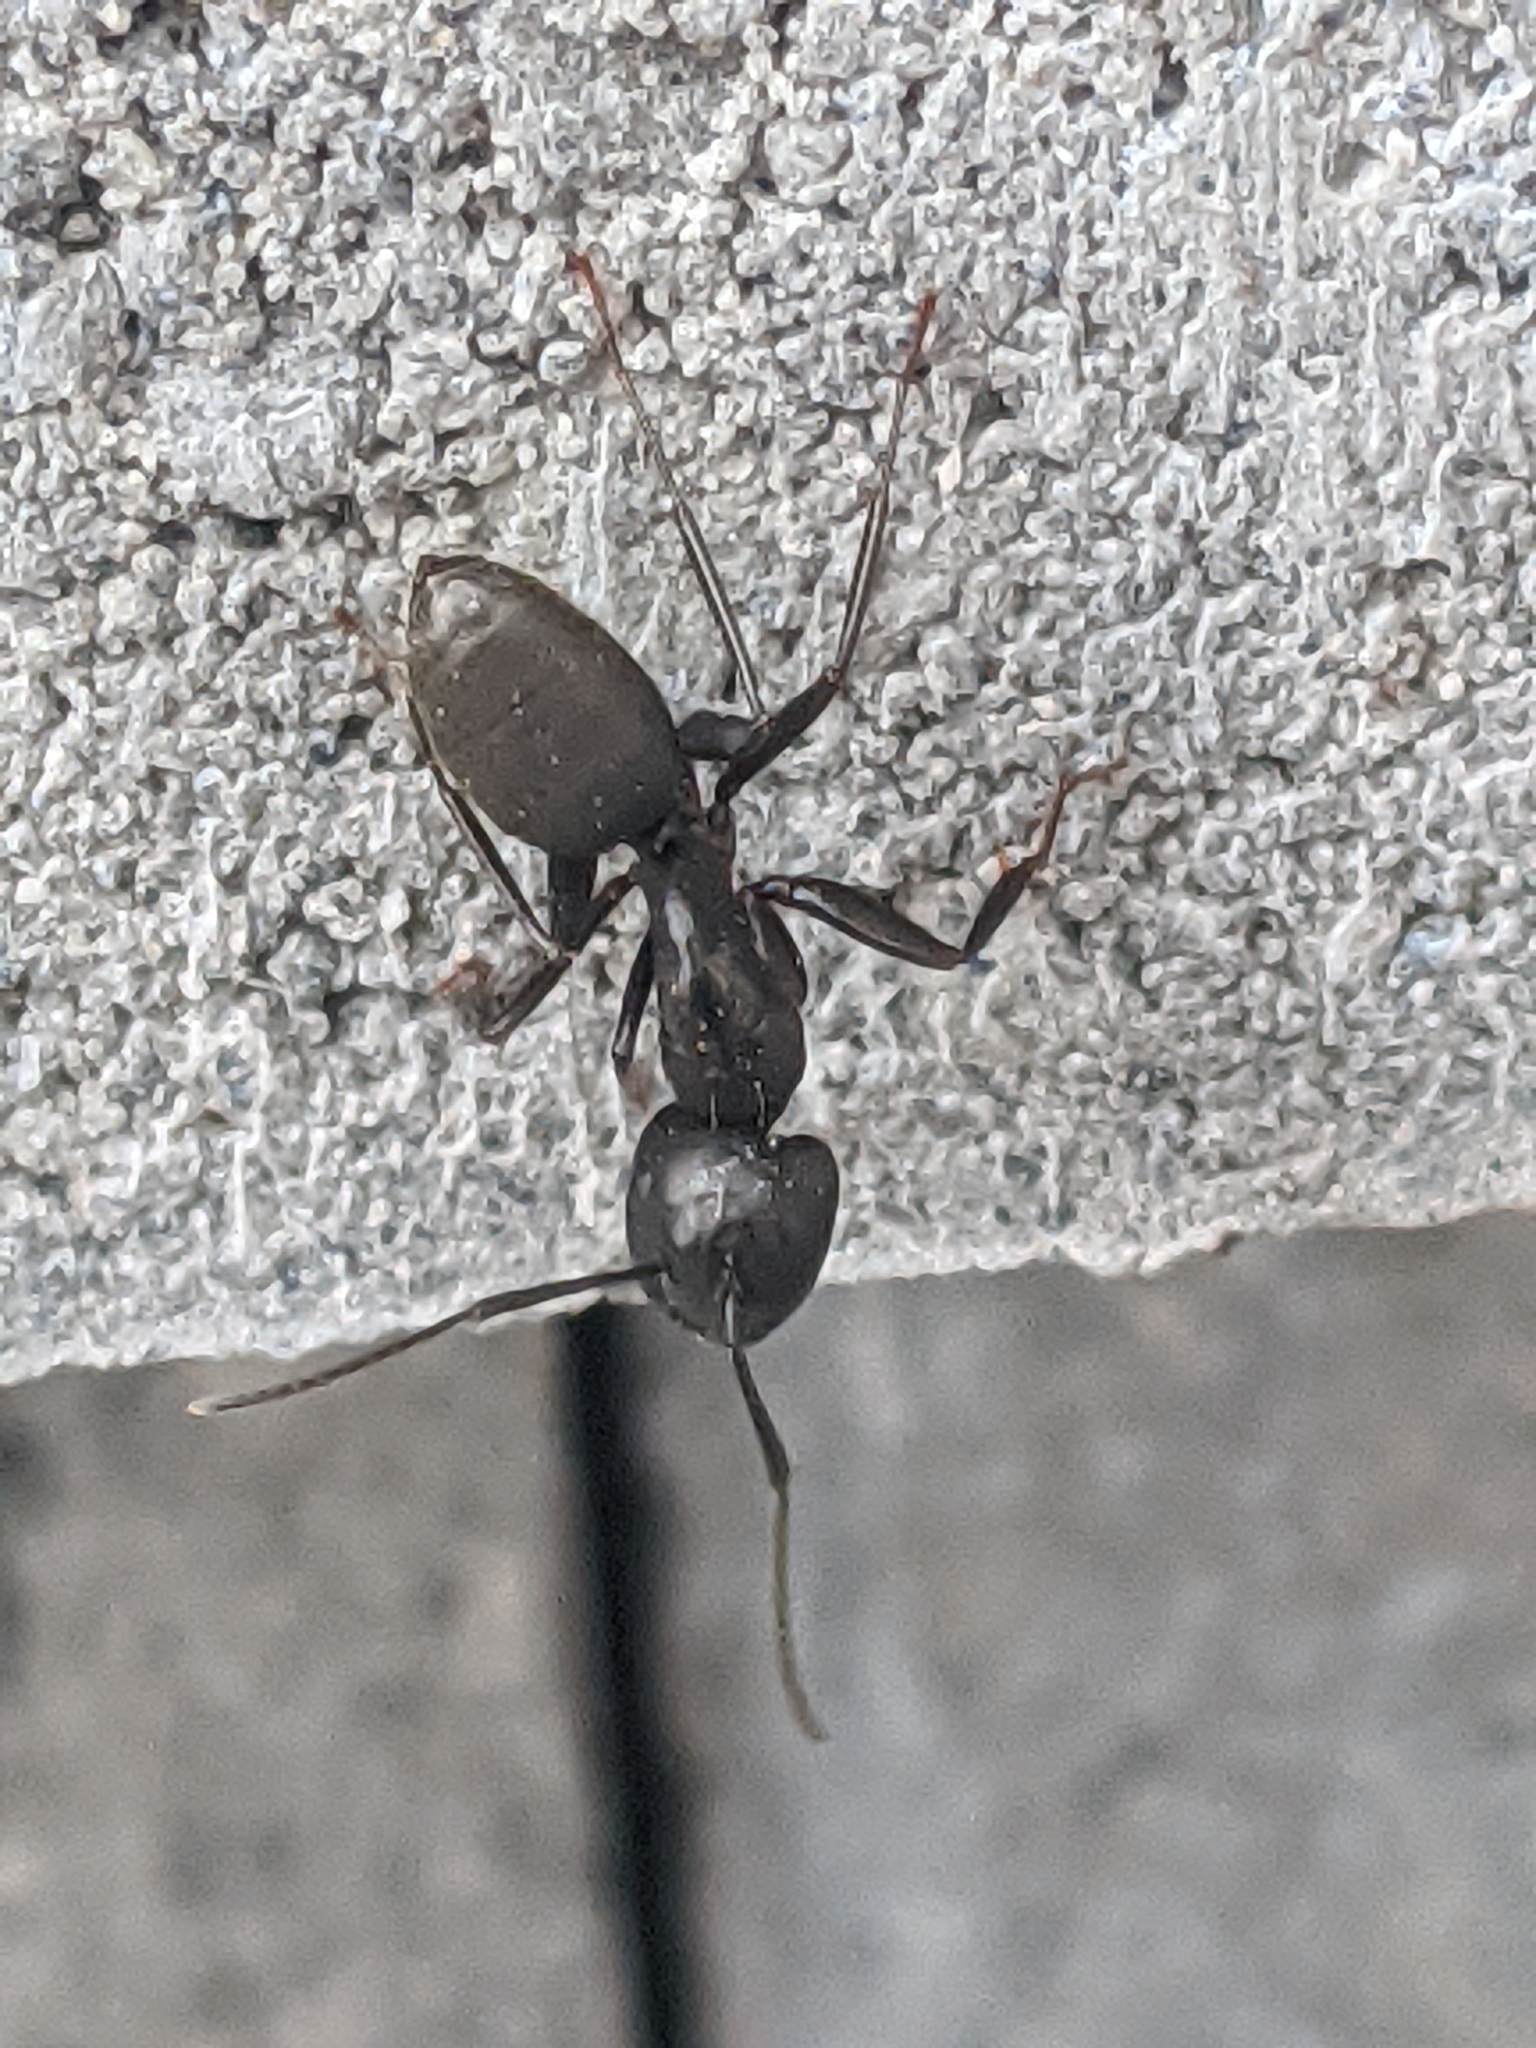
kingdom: Animalia
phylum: Arthropoda
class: Insecta
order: Hymenoptera
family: Formicidae
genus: Camponotus
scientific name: Camponotus pennsylvanicus
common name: Black carpenter ant
